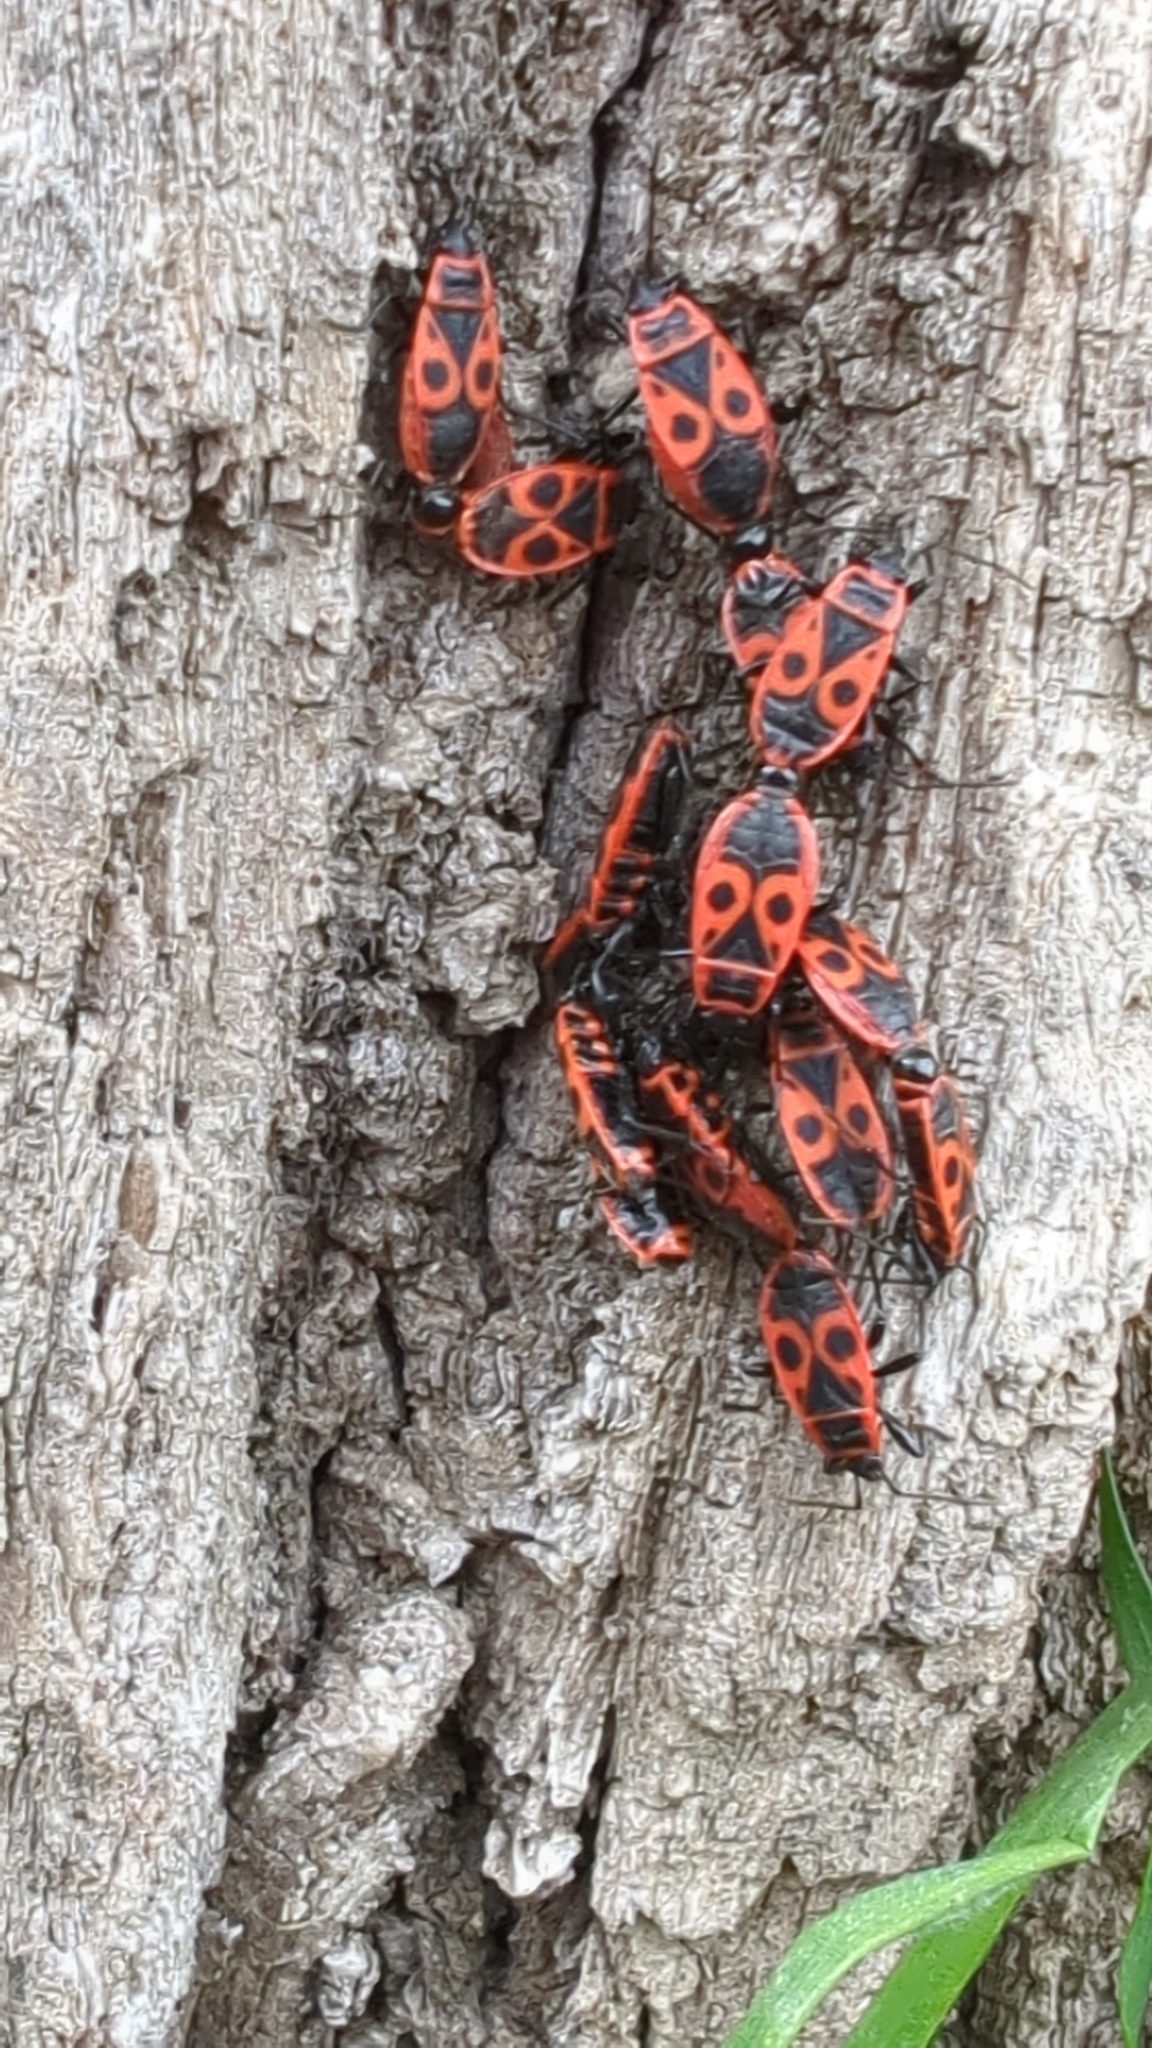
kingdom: Animalia
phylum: Arthropoda
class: Insecta
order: Hemiptera
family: Pyrrhocoridae
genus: Pyrrhocoris
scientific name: Pyrrhocoris apterus
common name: Firebug
